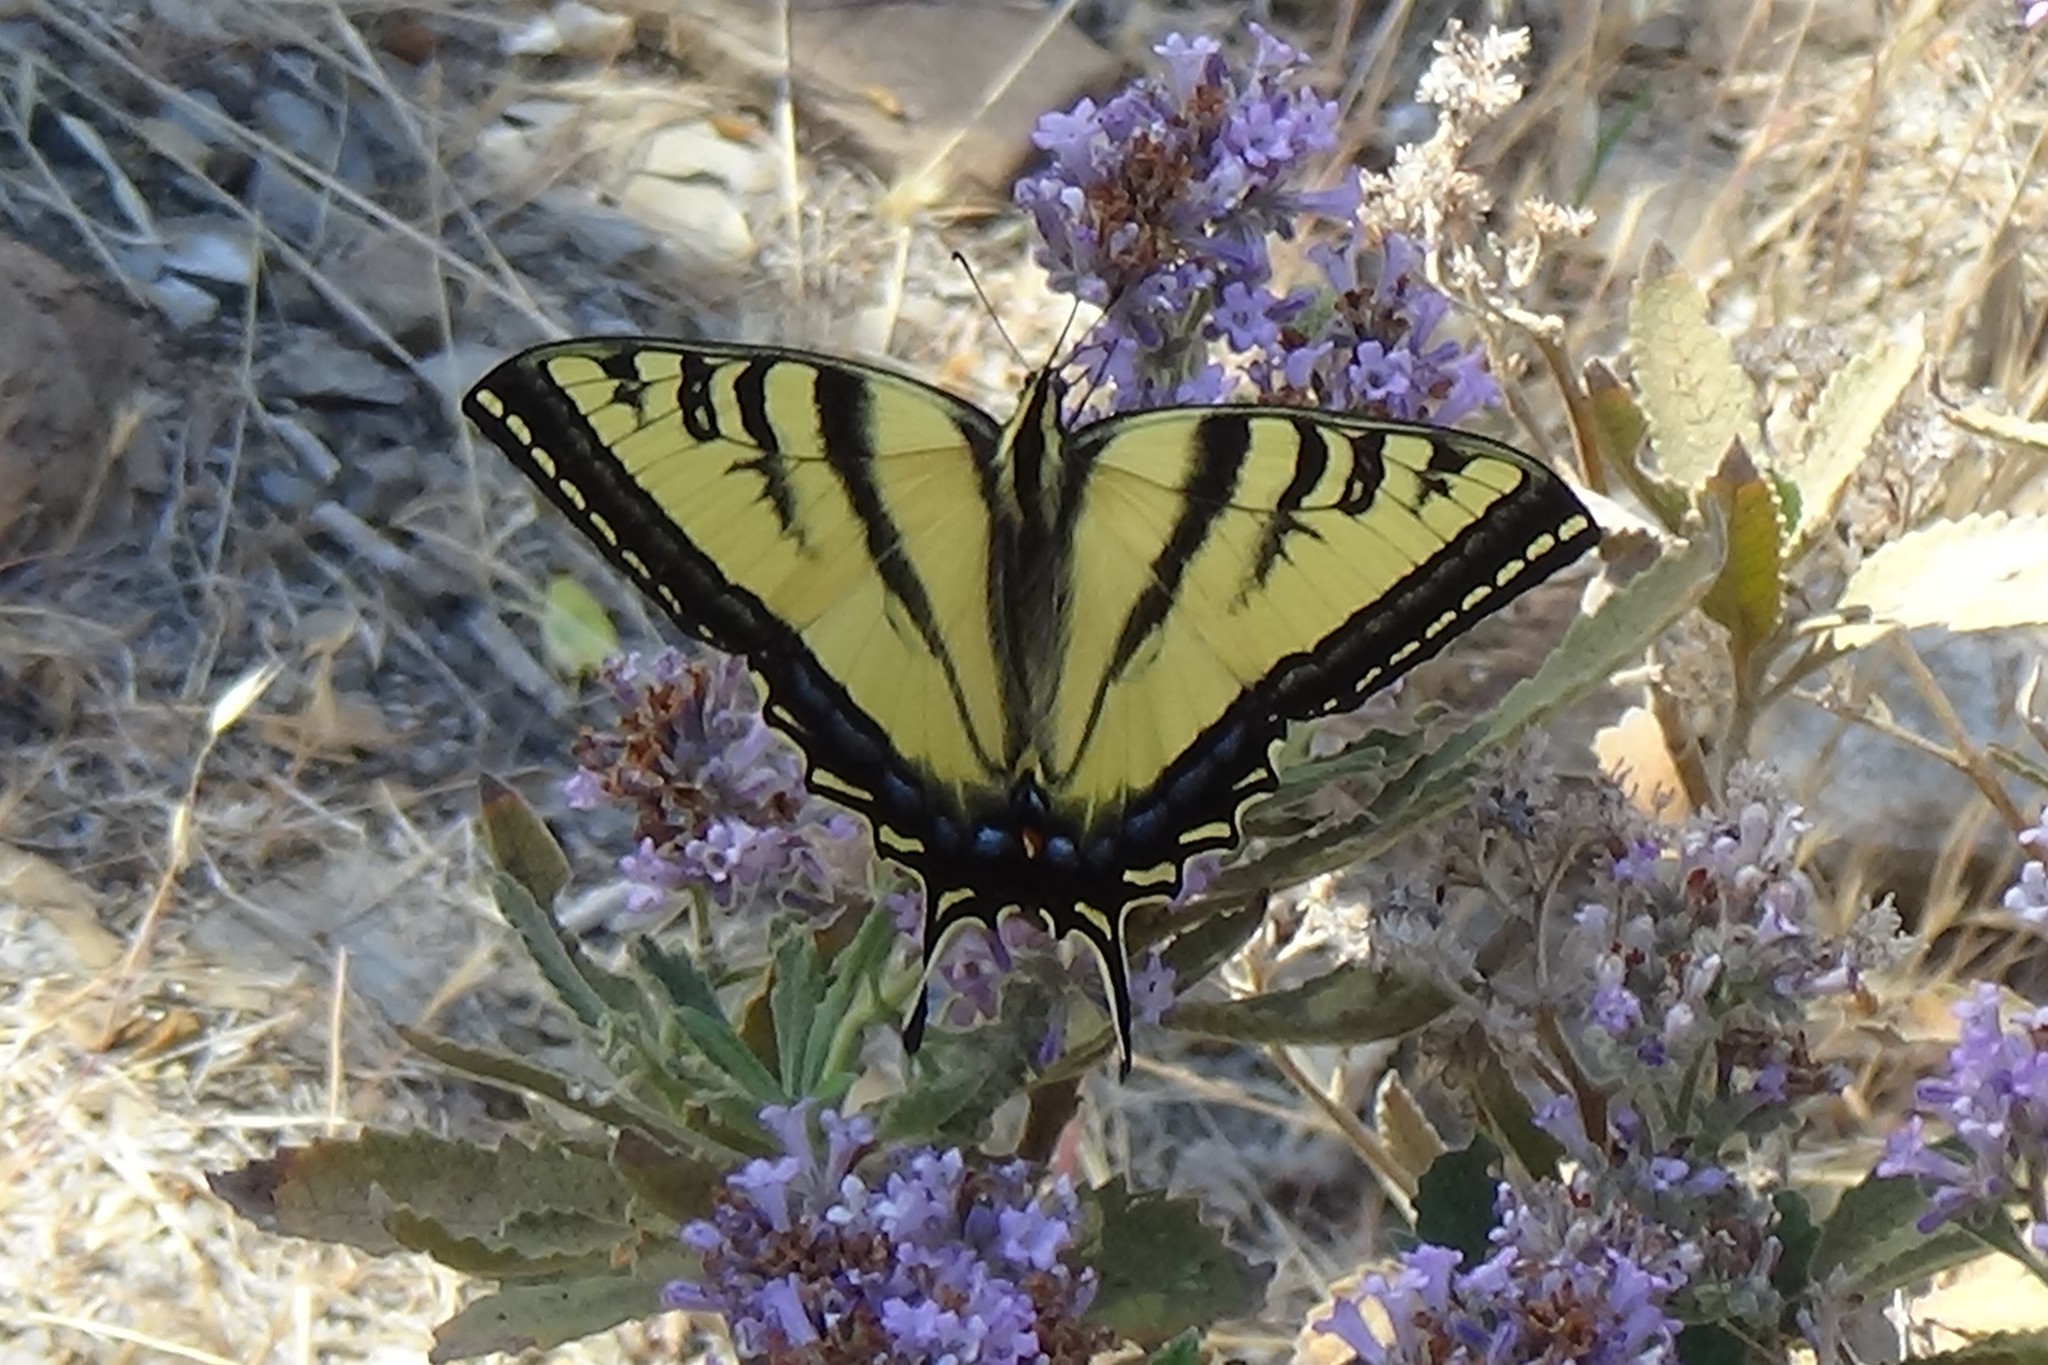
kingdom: Animalia
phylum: Arthropoda
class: Insecta
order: Lepidoptera
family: Papilionidae
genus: Papilio
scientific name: Papilio rutulus
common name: Western tiger swallowtail
